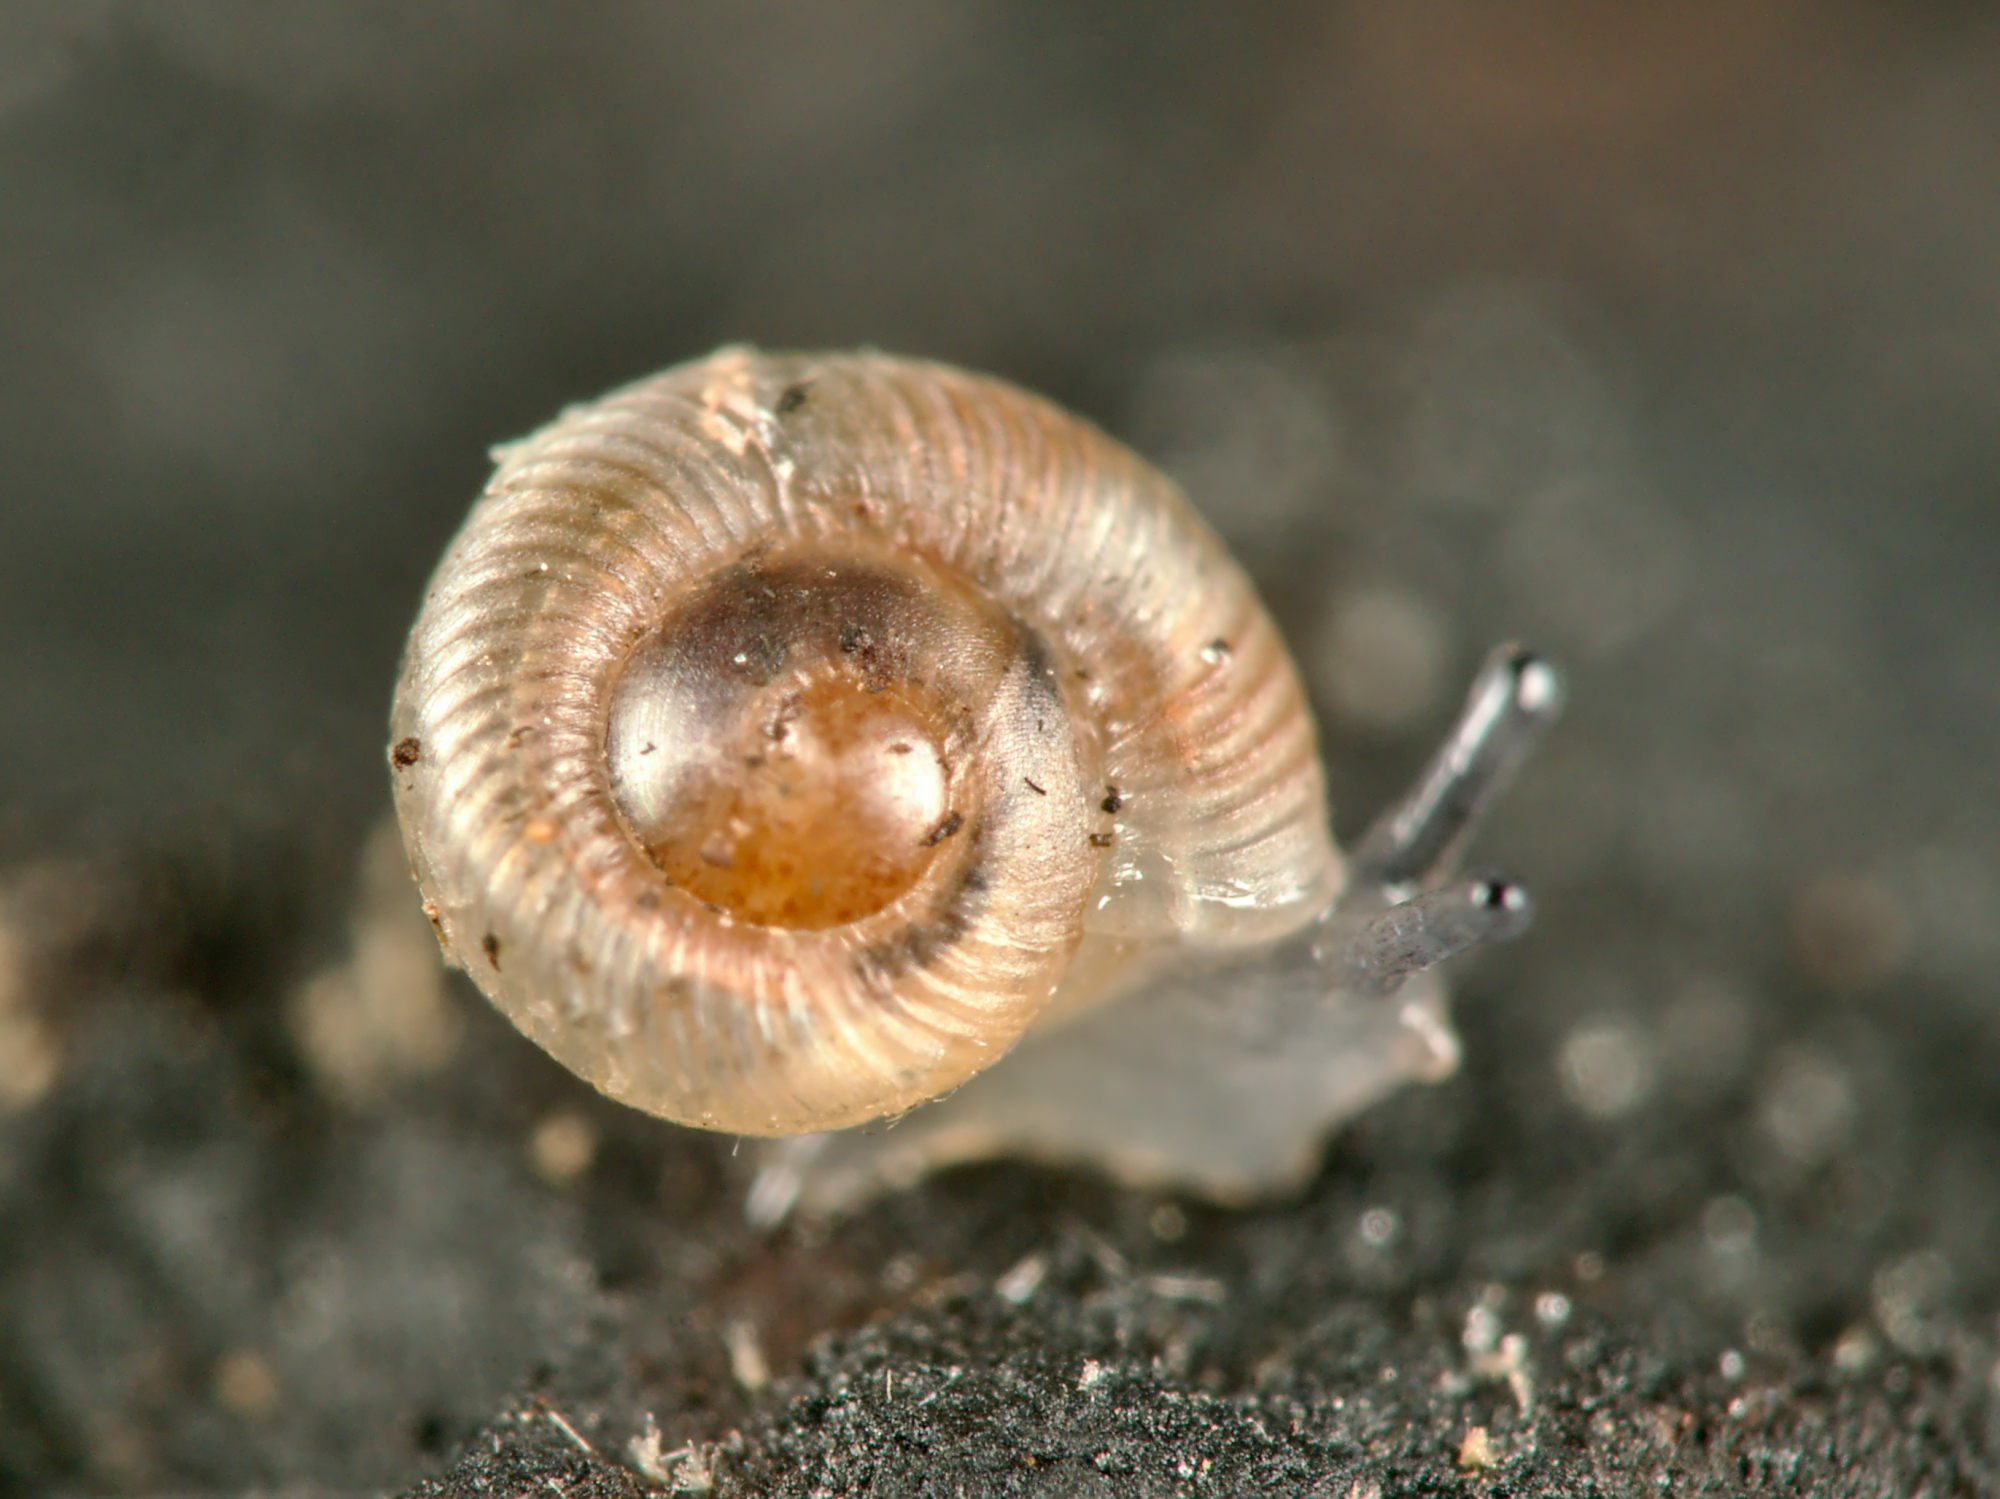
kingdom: Animalia
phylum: Mollusca
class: Gastropoda
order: Stylommatophora
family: Discidae
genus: Discus
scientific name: Discus rotundatus
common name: Rounded snail
